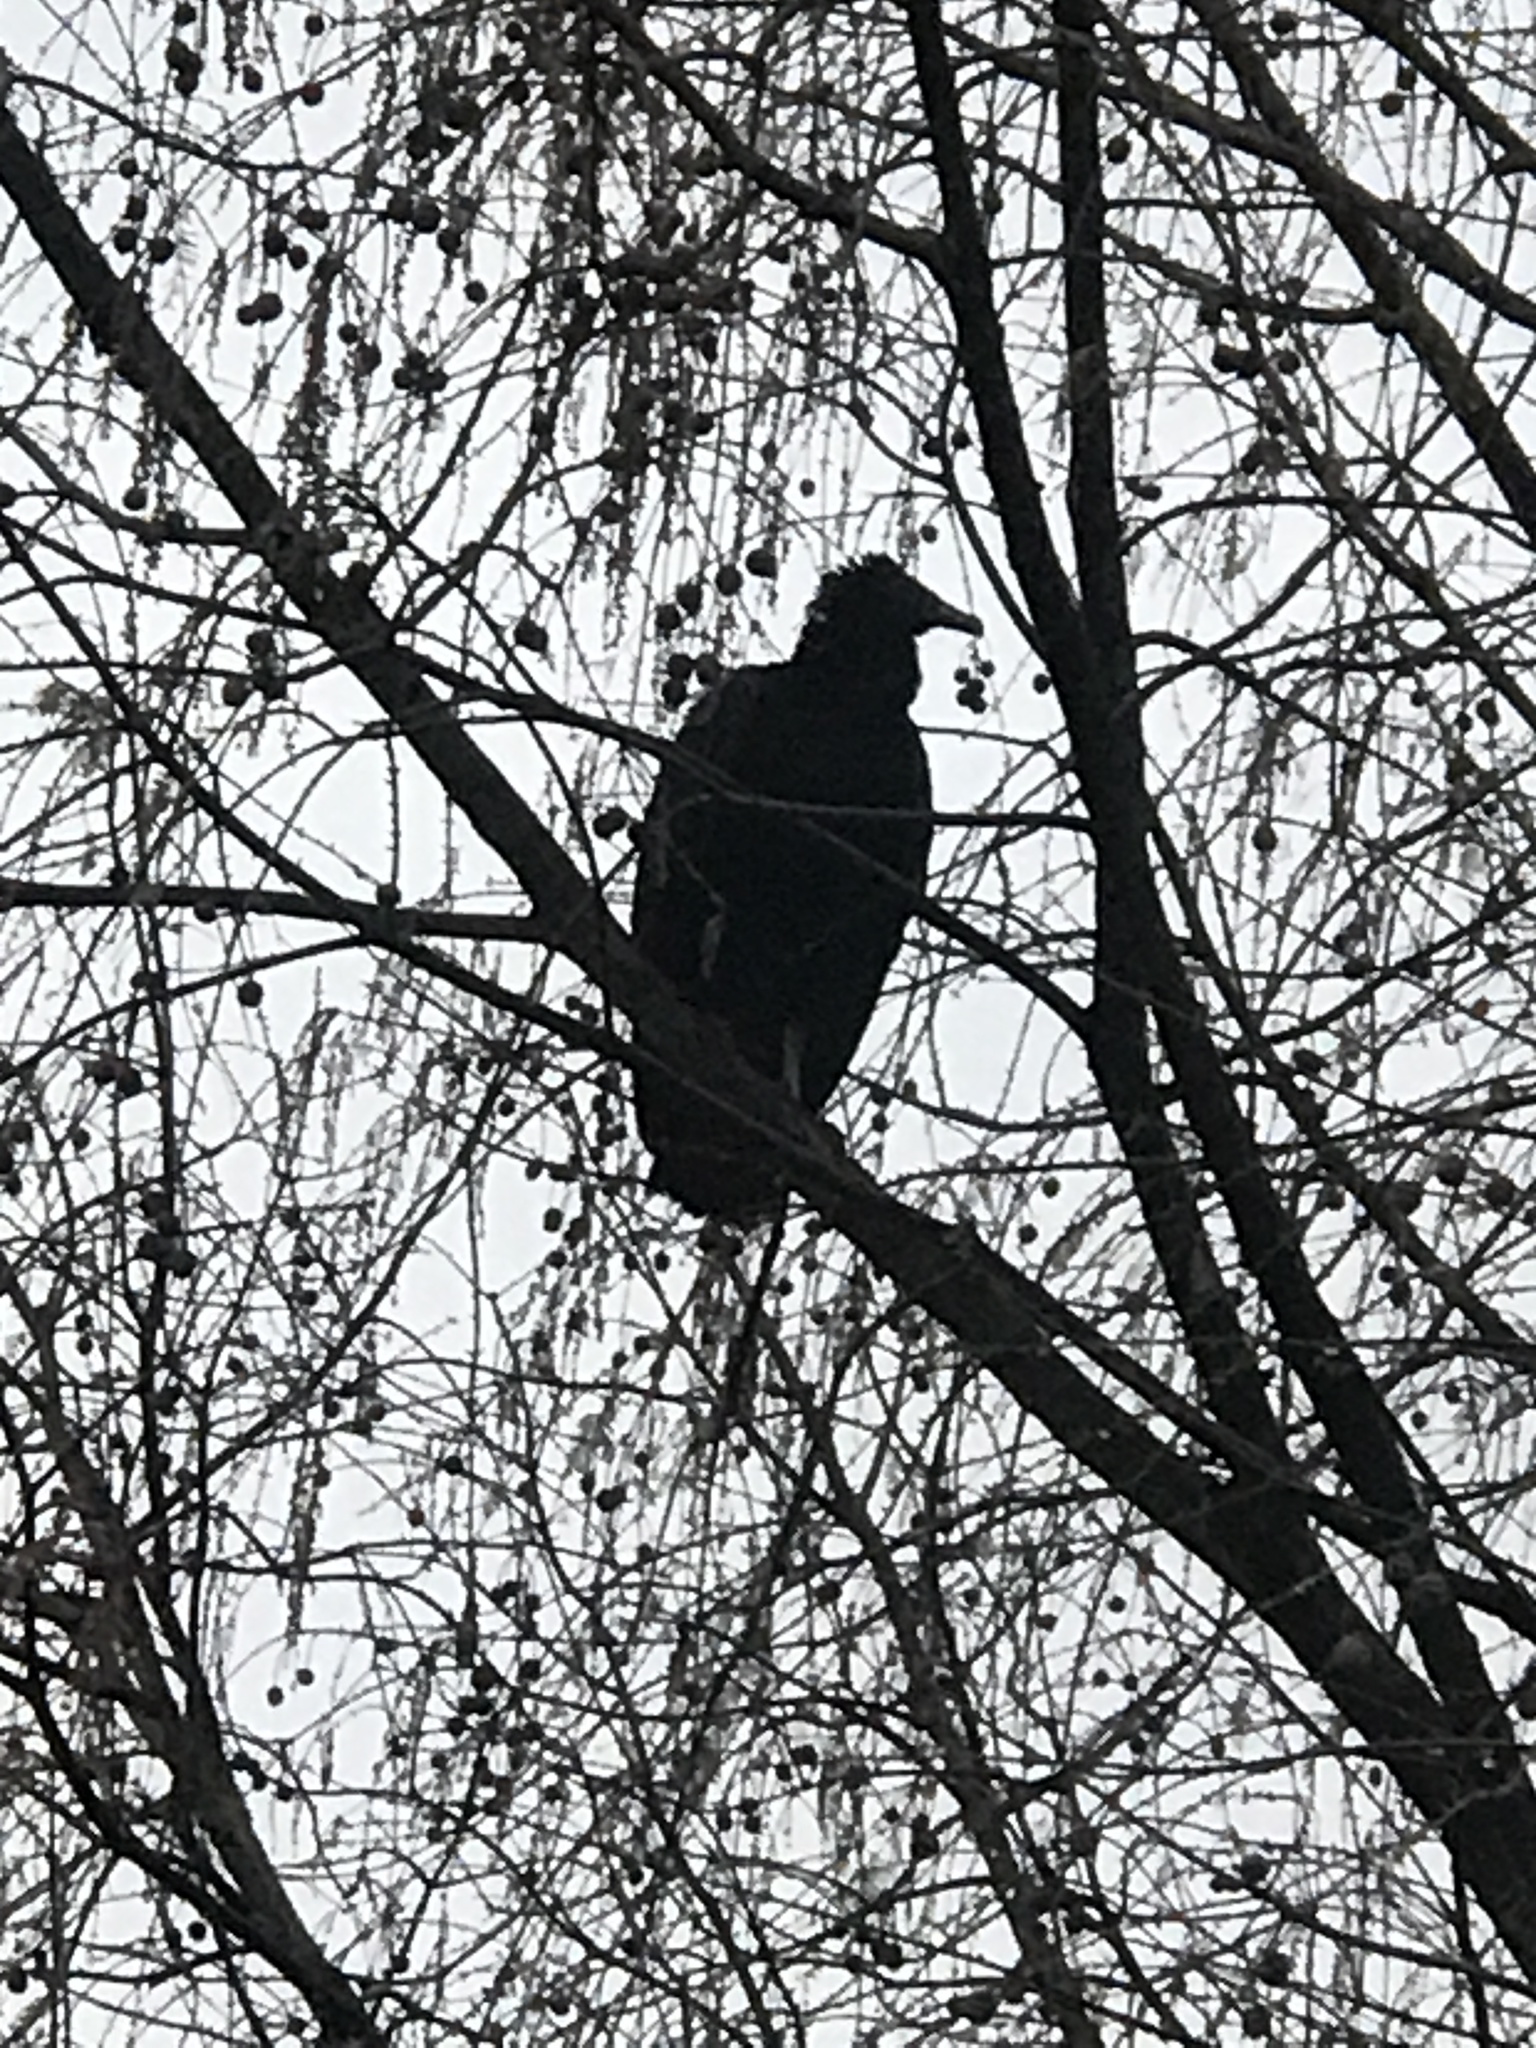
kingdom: Animalia
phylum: Chordata
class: Aves
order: Accipitriformes
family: Cathartidae
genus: Coragyps
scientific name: Coragyps atratus
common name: Black vulture
